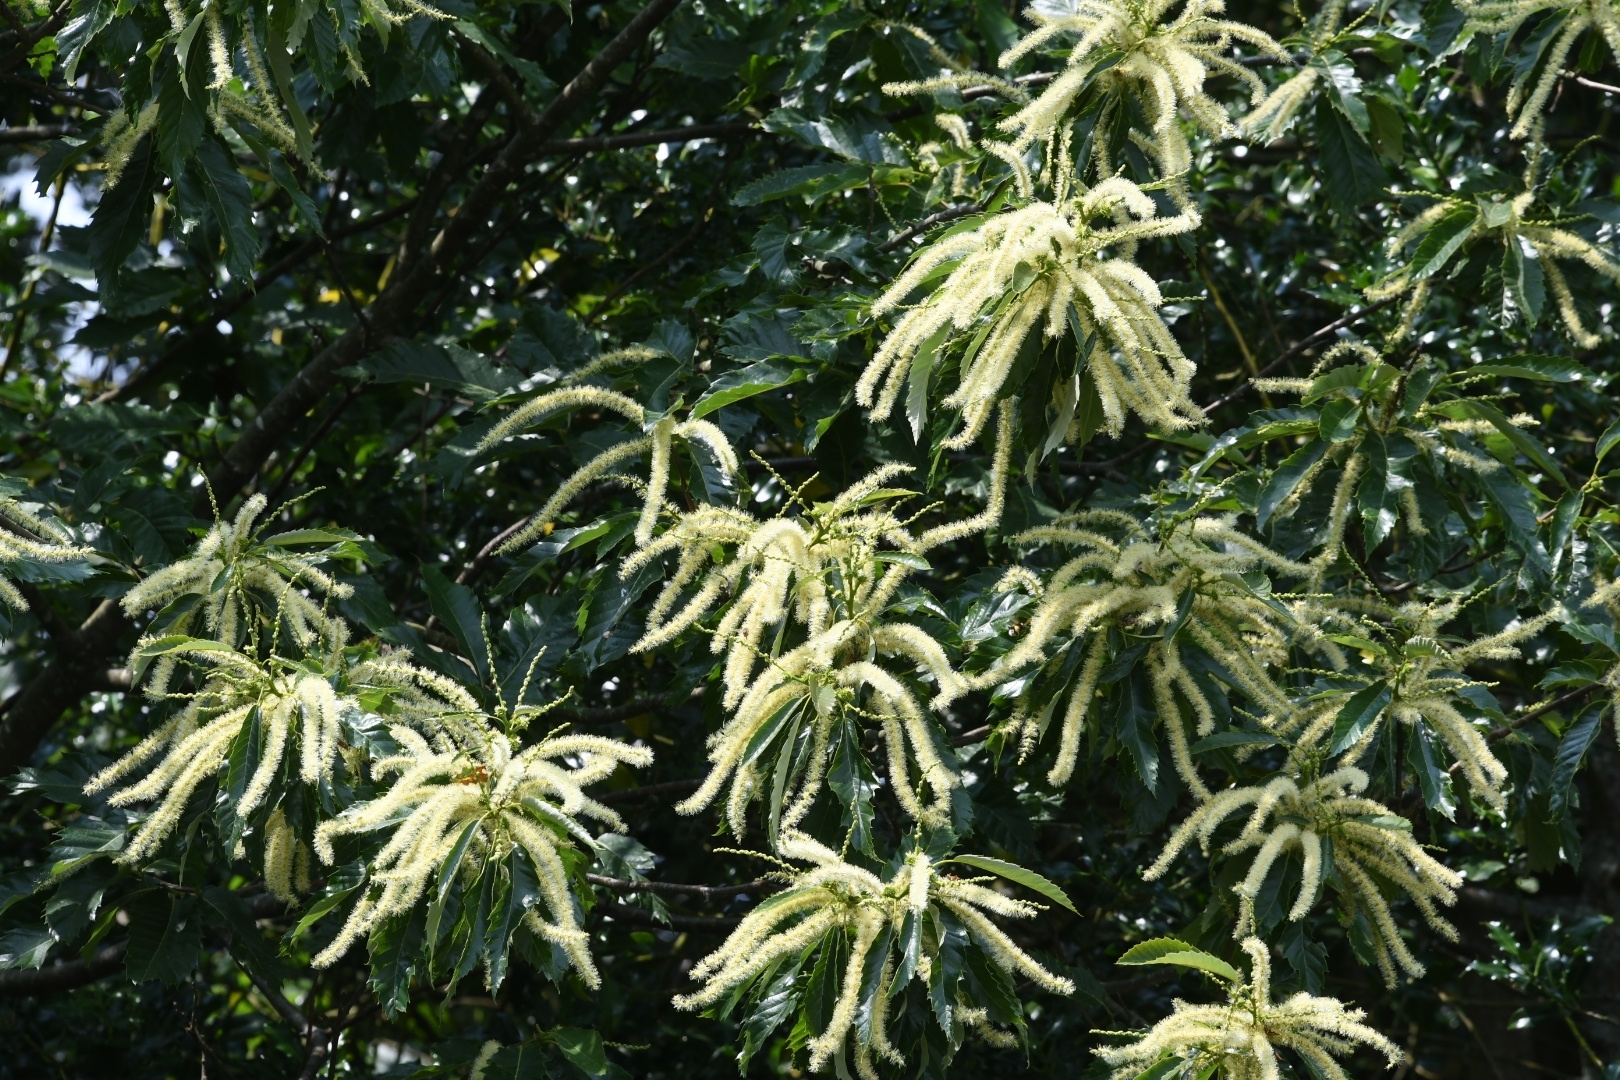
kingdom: Plantae
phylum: Tracheophyta
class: Magnoliopsida
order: Fagales
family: Fagaceae
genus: Castanea
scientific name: Castanea sativa
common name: Sweet chestnut
